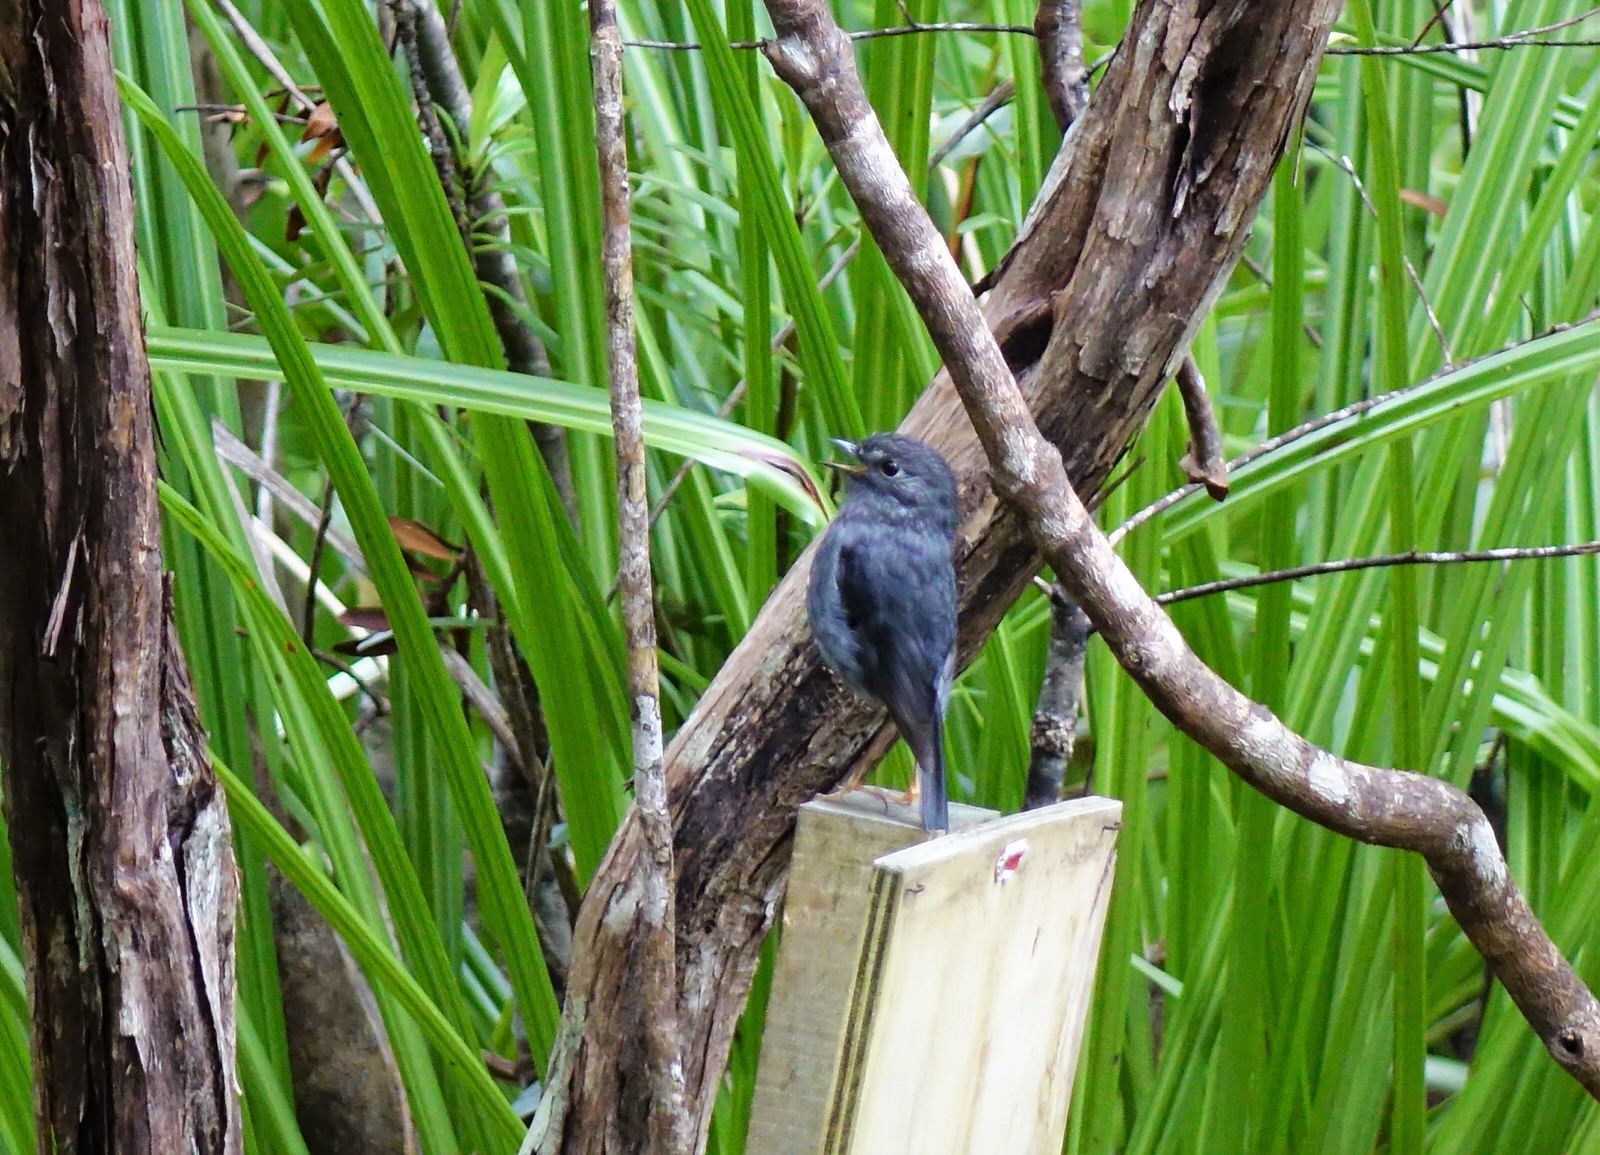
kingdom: Animalia
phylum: Chordata
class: Aves
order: Passeriformes
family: Petroicidae
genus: Petroica
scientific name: Petroica australis
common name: New zealand robin
